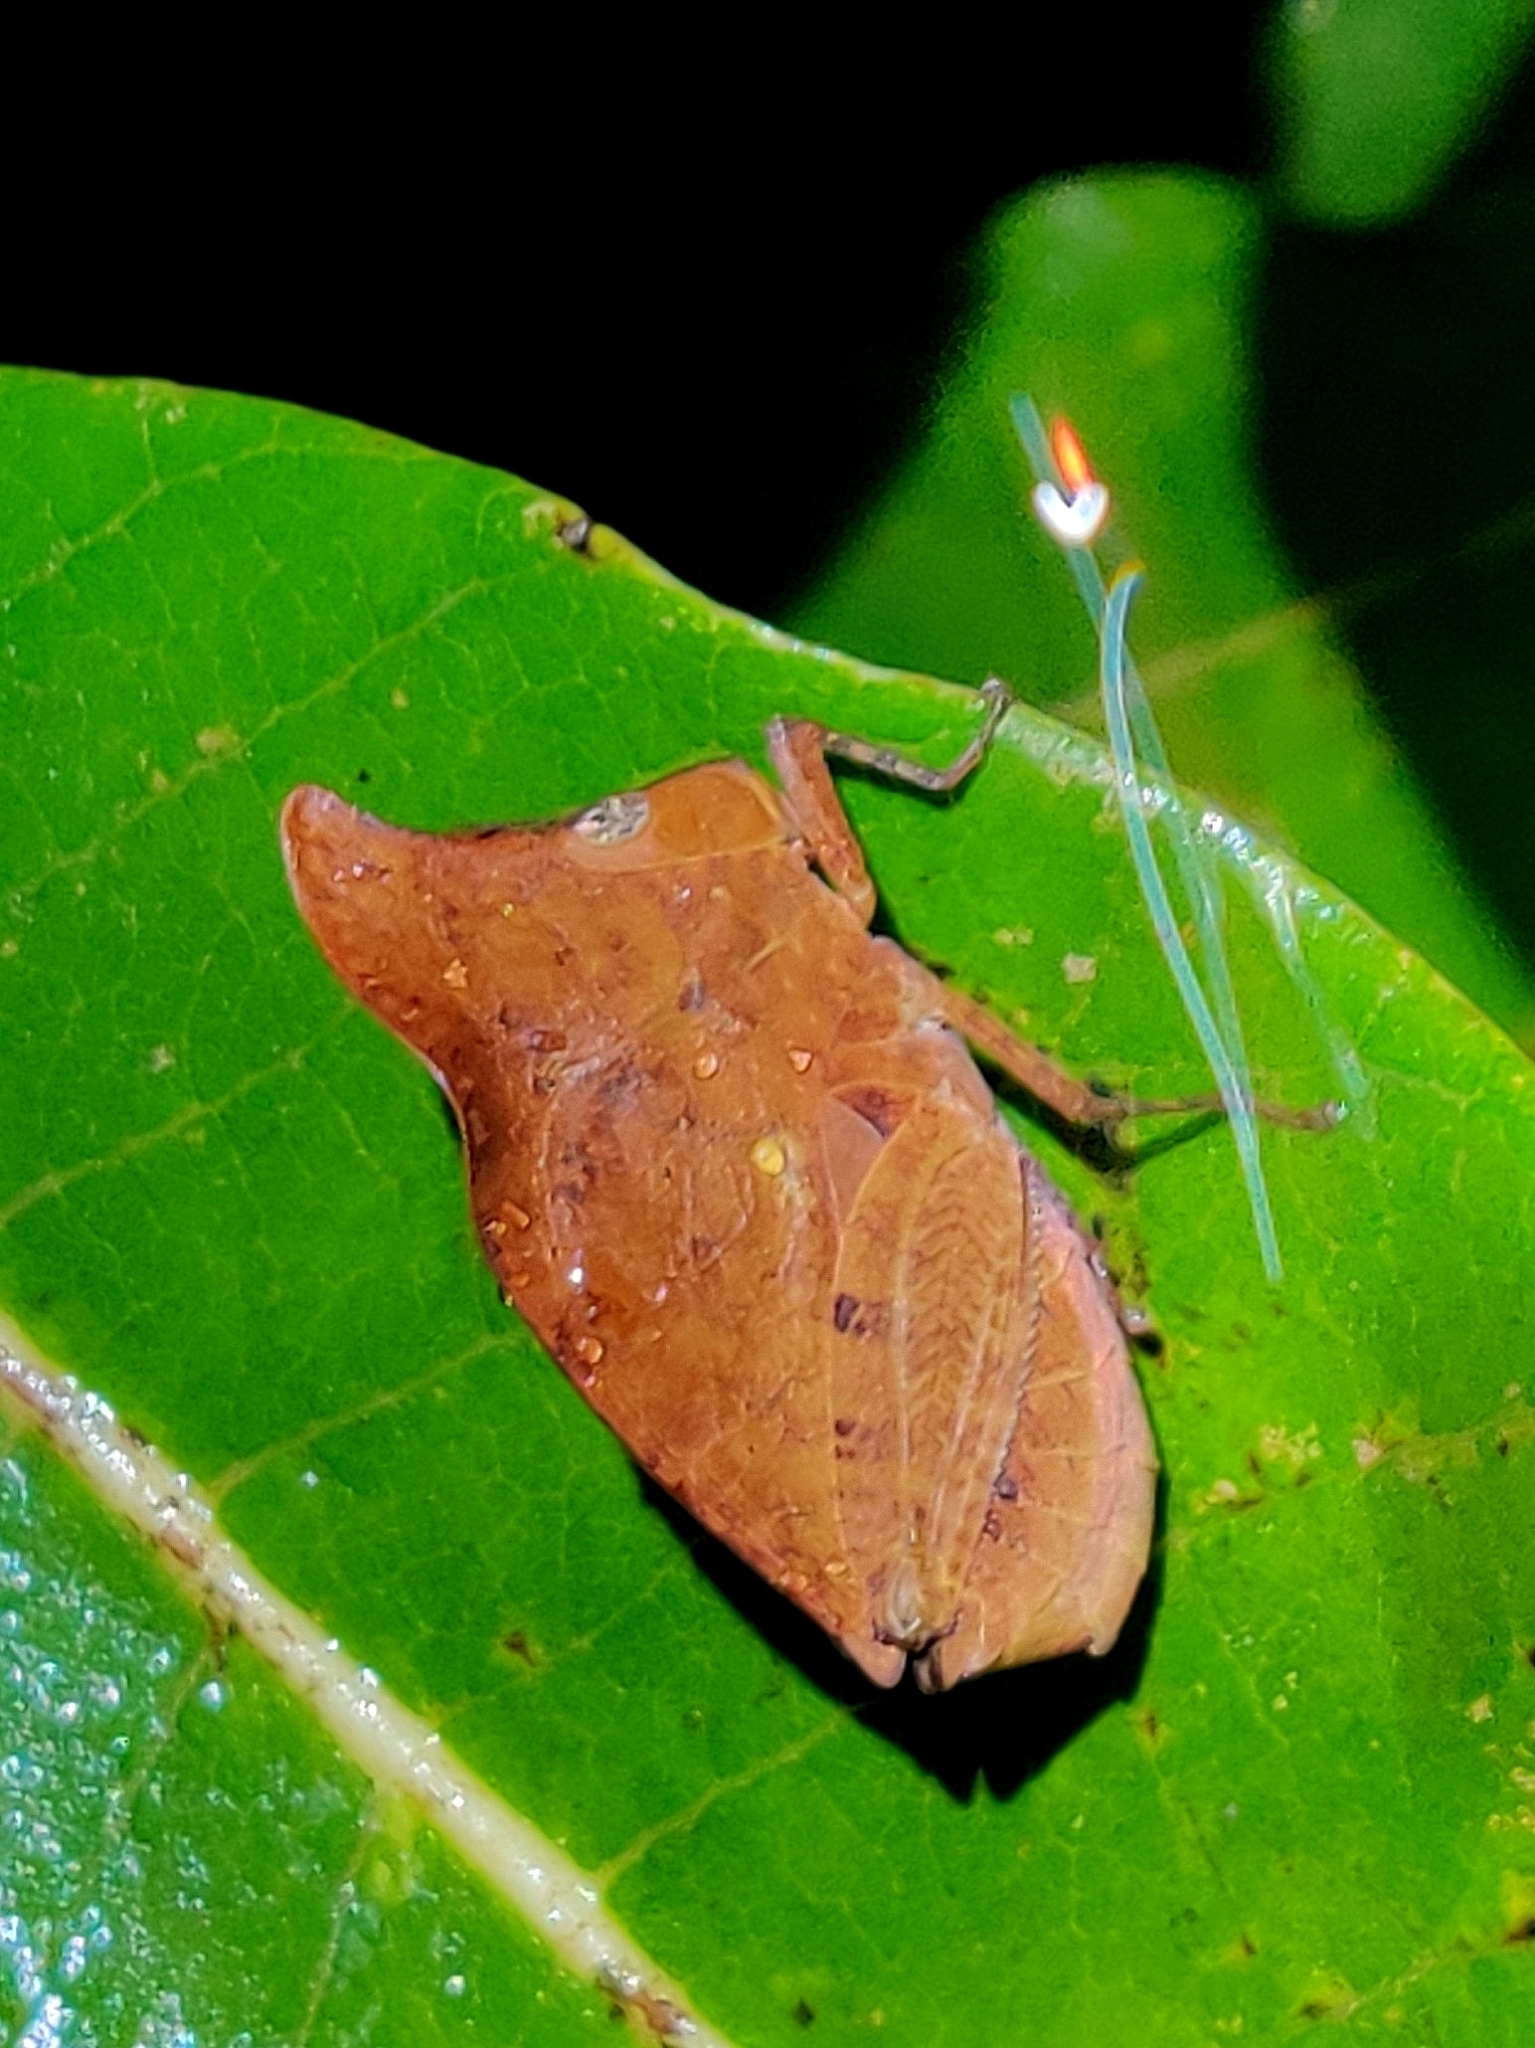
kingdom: Animalia
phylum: Arthropoda
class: Insecta
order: Orthoptera
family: Chorotypidae
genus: Phyllochoreia
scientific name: Phyllochoreia ramakrishnai
